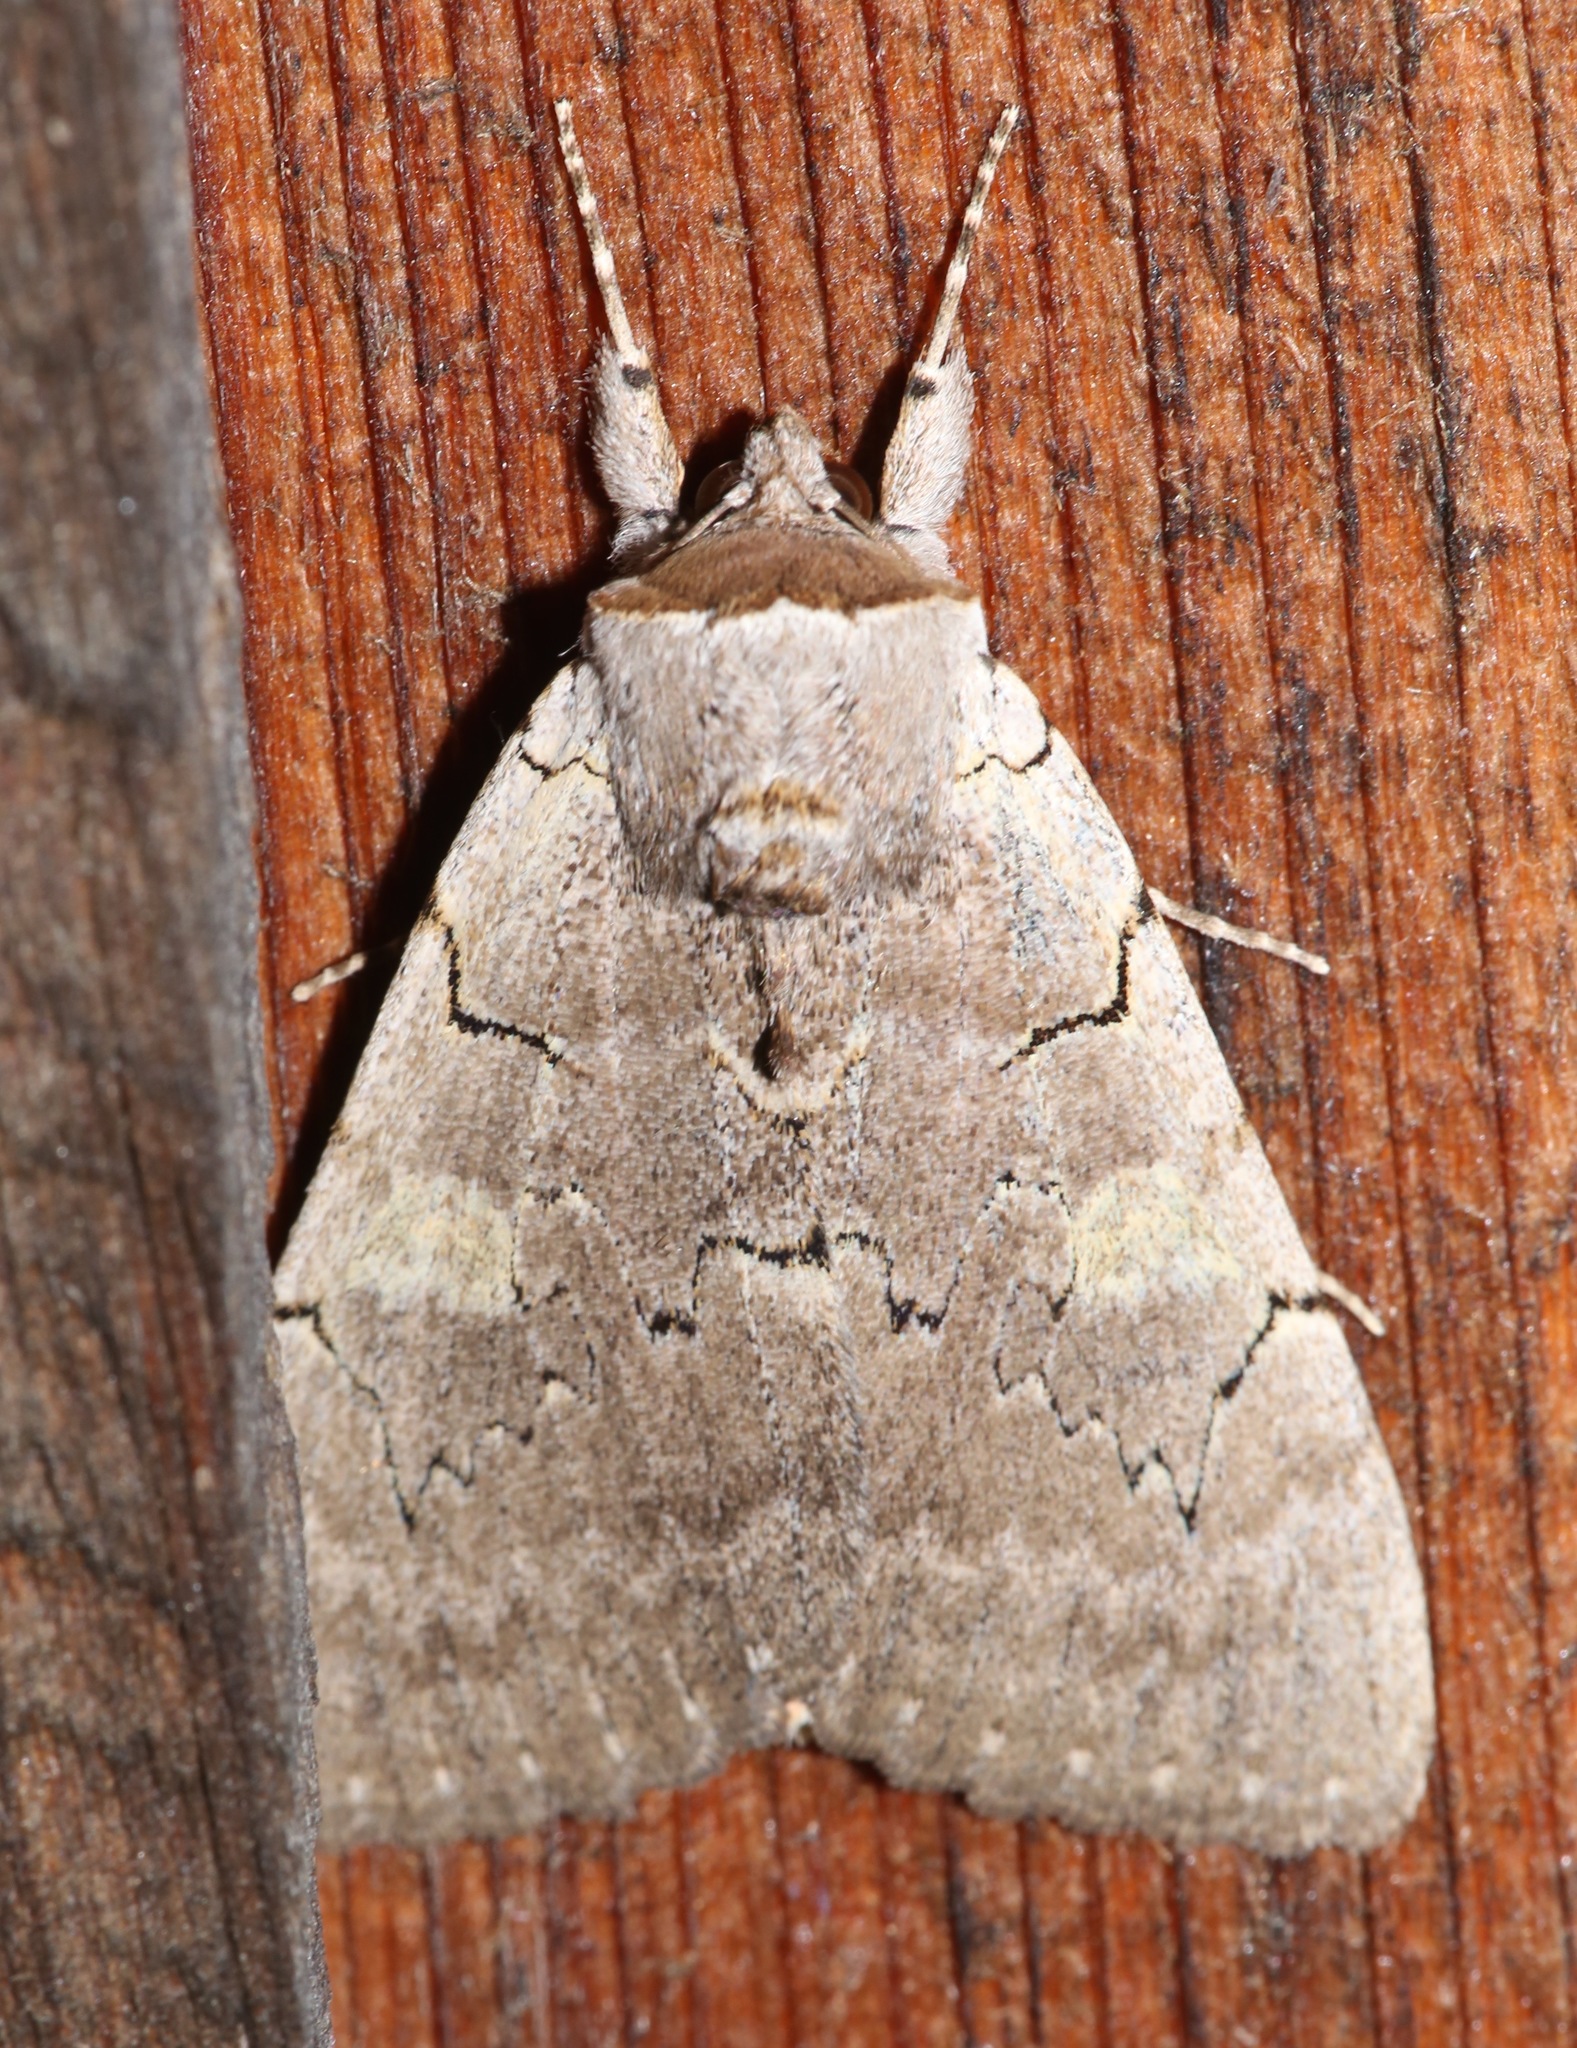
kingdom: Animalia
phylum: Arthropoda
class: Insecta
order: Lepidoptera
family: Erebidae
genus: Catocala
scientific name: Catocala concumbens
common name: Pink underwing
